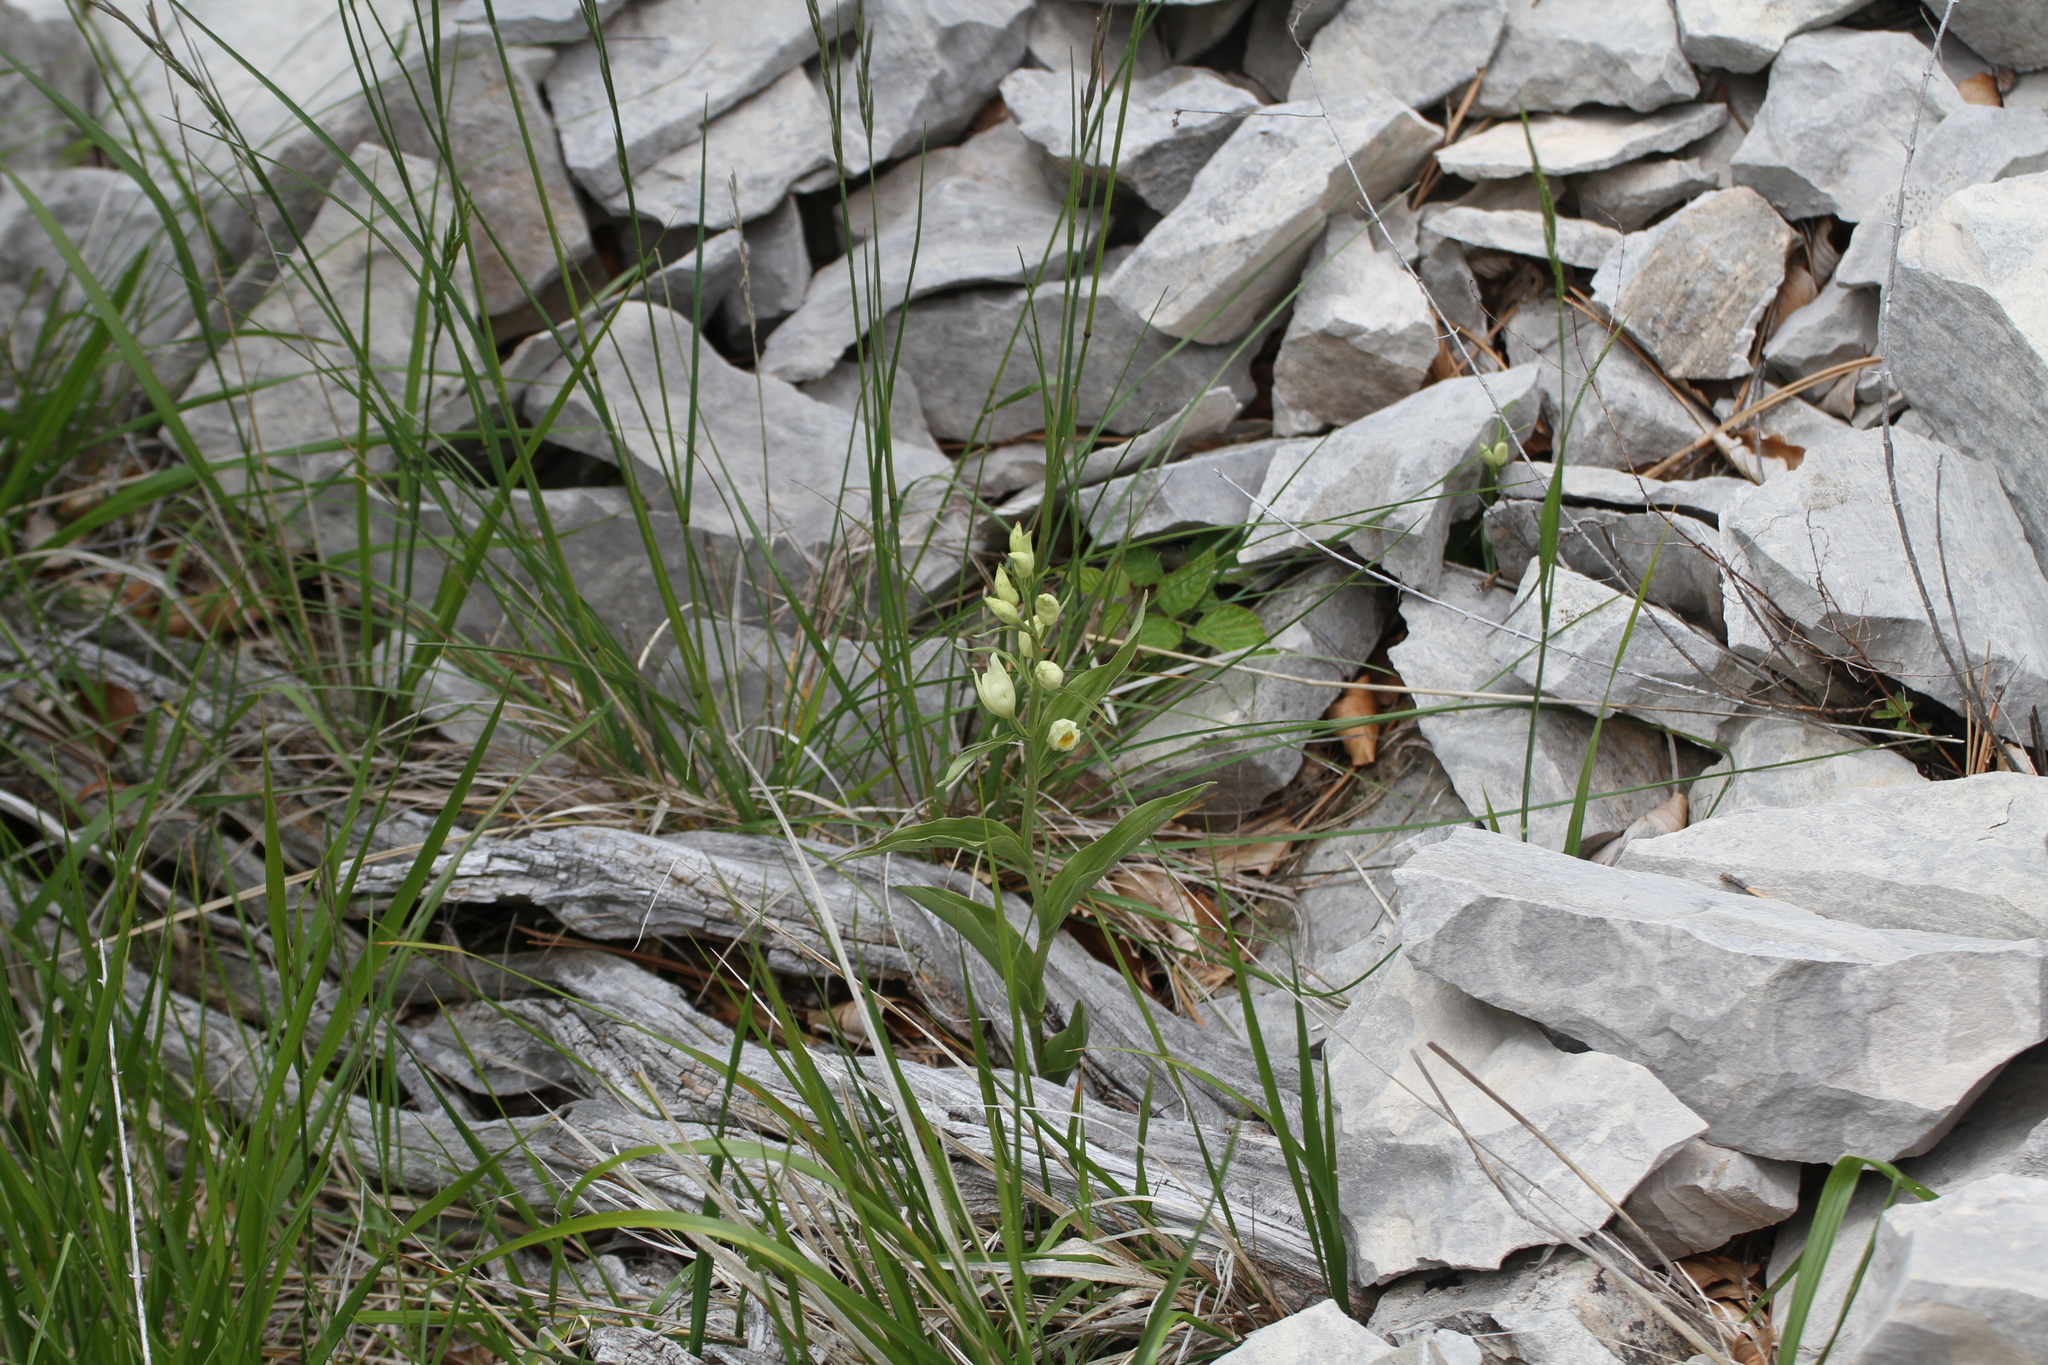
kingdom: Plantae
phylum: Tracheophyta
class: Liliopsida
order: Asparagales
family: Orchidaceae
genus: Cephalanthera
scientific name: Cephalanthera damasonium
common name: White helleborine
